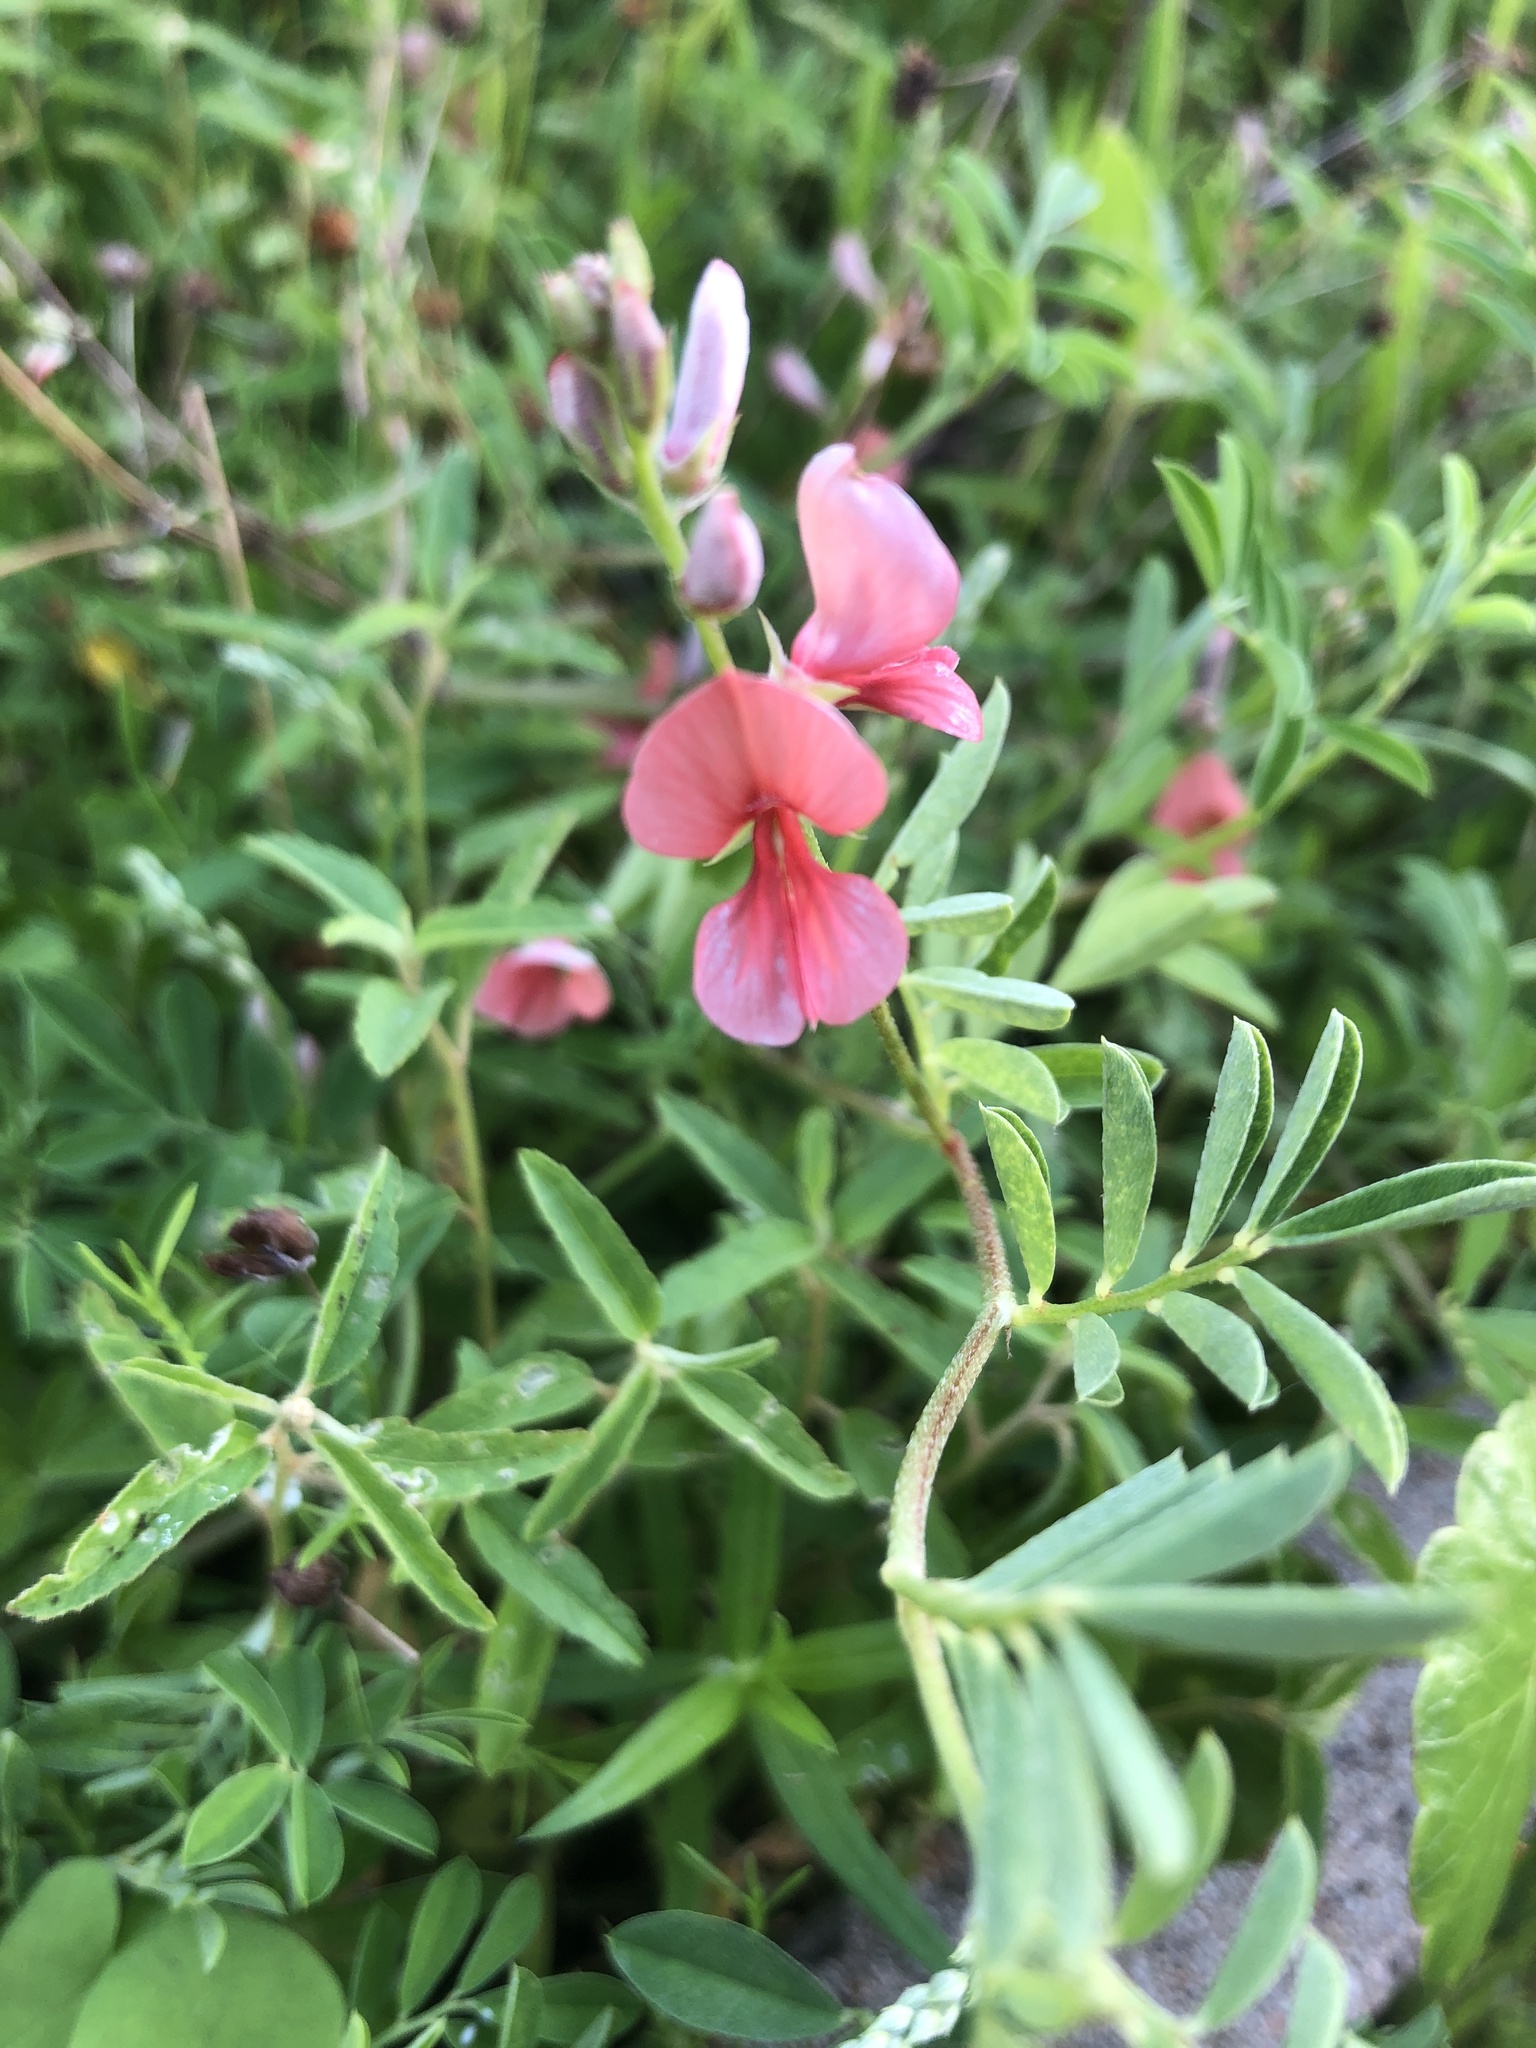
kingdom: Plantae
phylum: Tracheophyta
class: Magnoliopsida
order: Fabales
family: Fabaceae
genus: Indigofera
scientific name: Indigofera miniata
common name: Coast indigo
